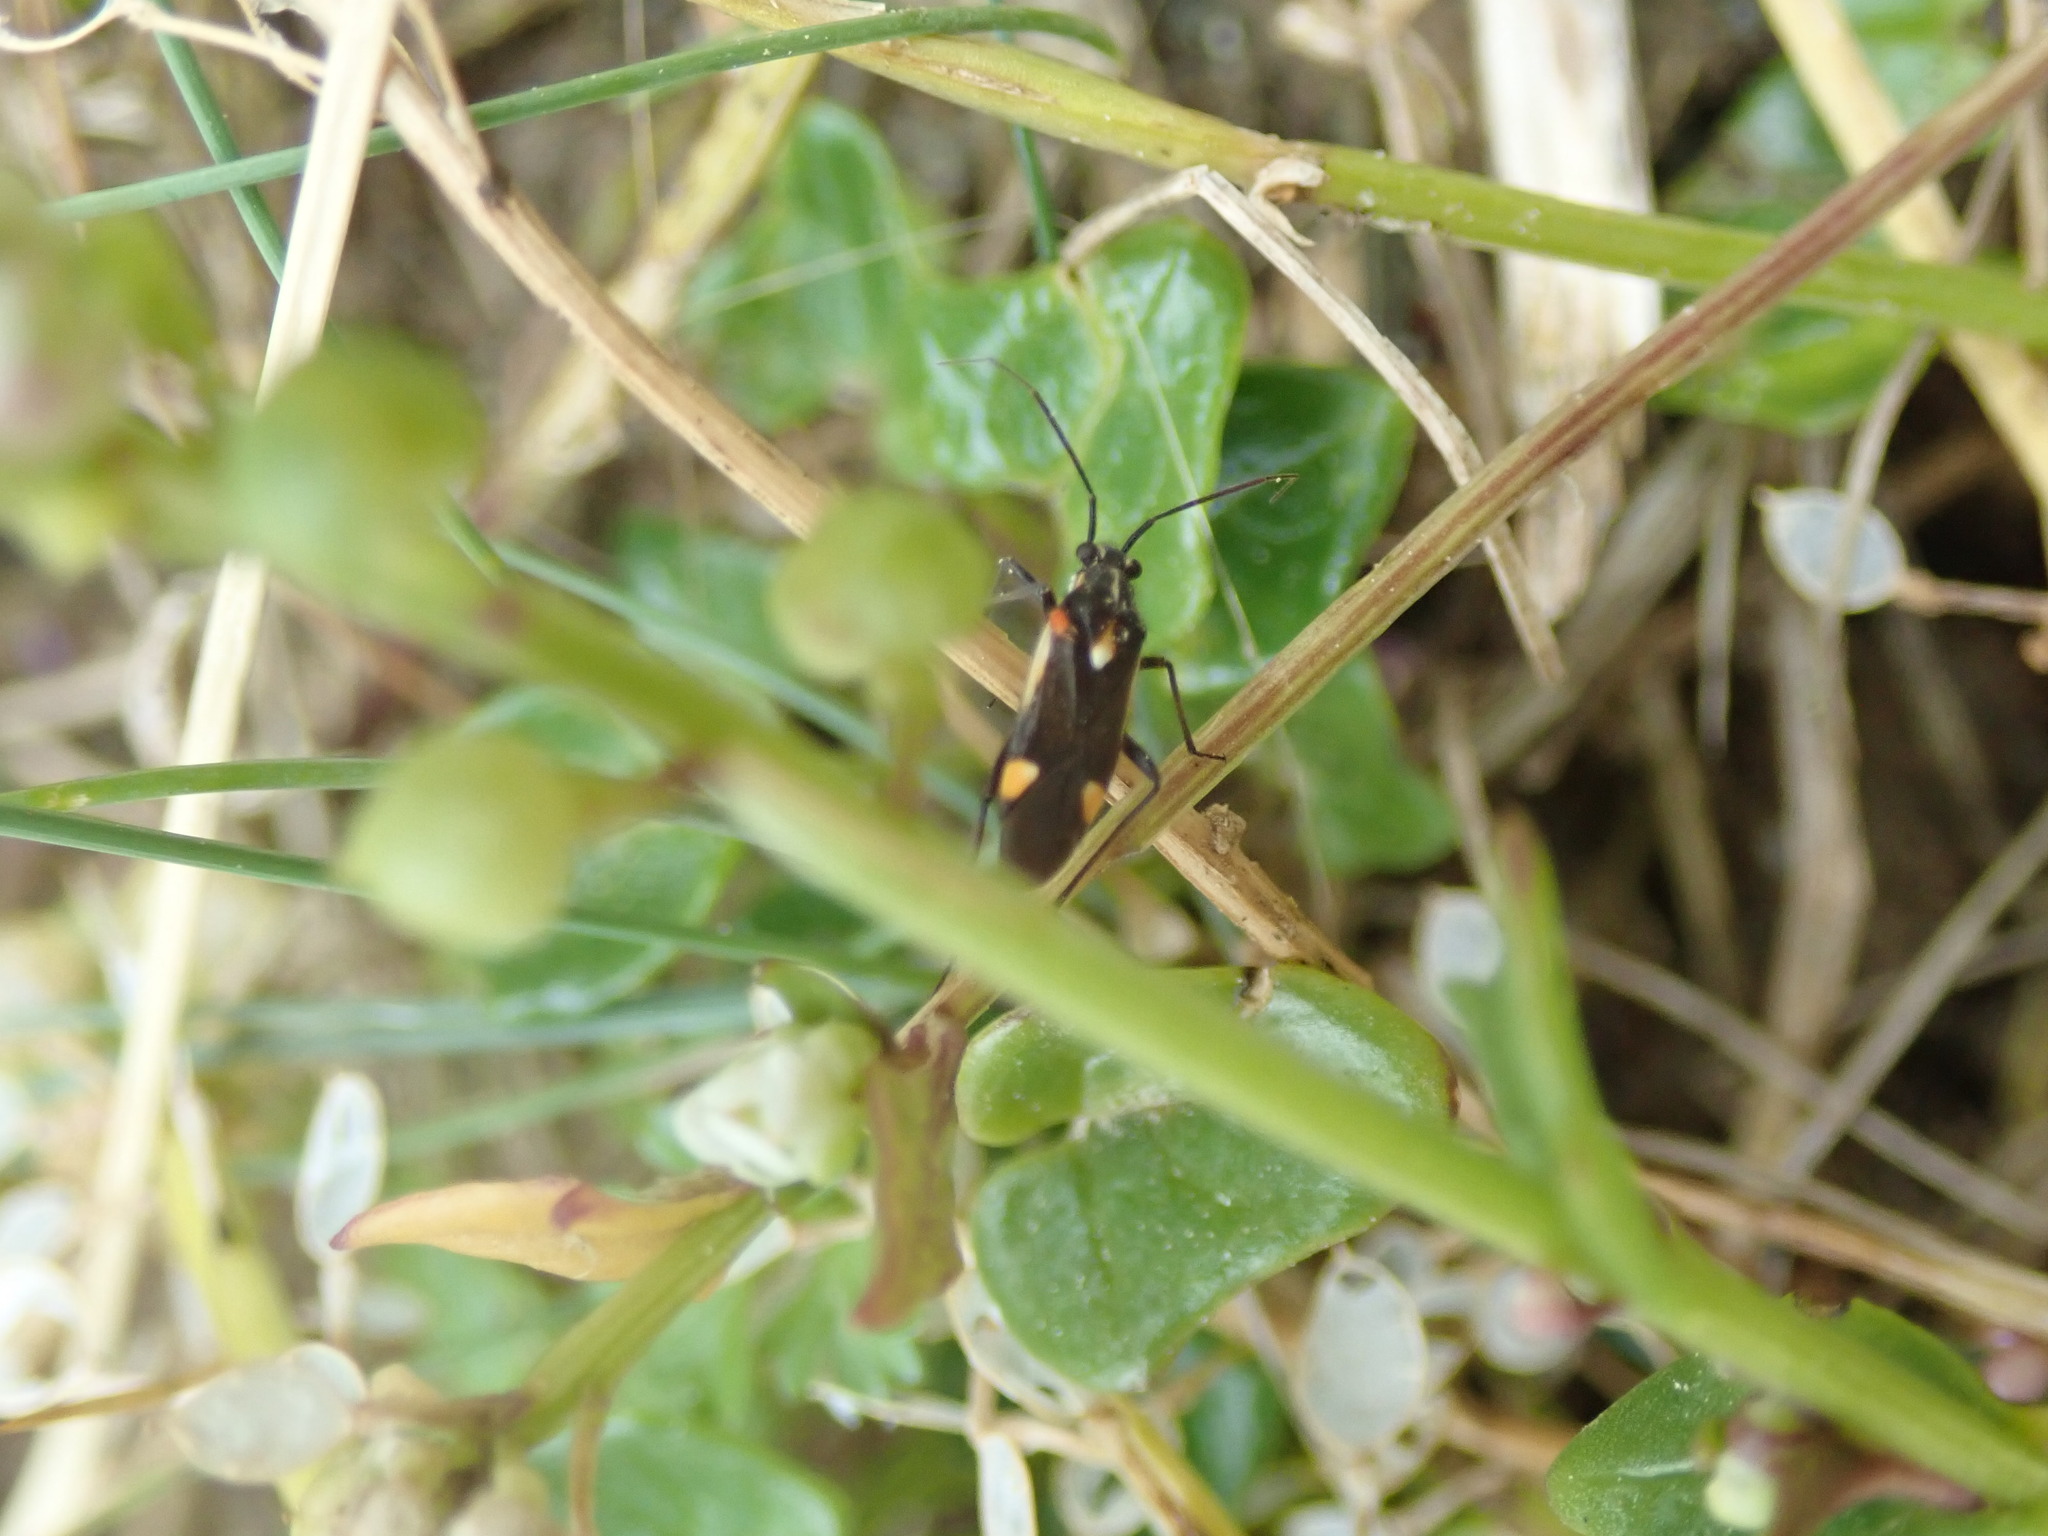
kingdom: Animalia
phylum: Arthropoda
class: Insecta
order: Hemiptera
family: Miridae
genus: Capsodes
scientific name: Capsodes sulcatus
